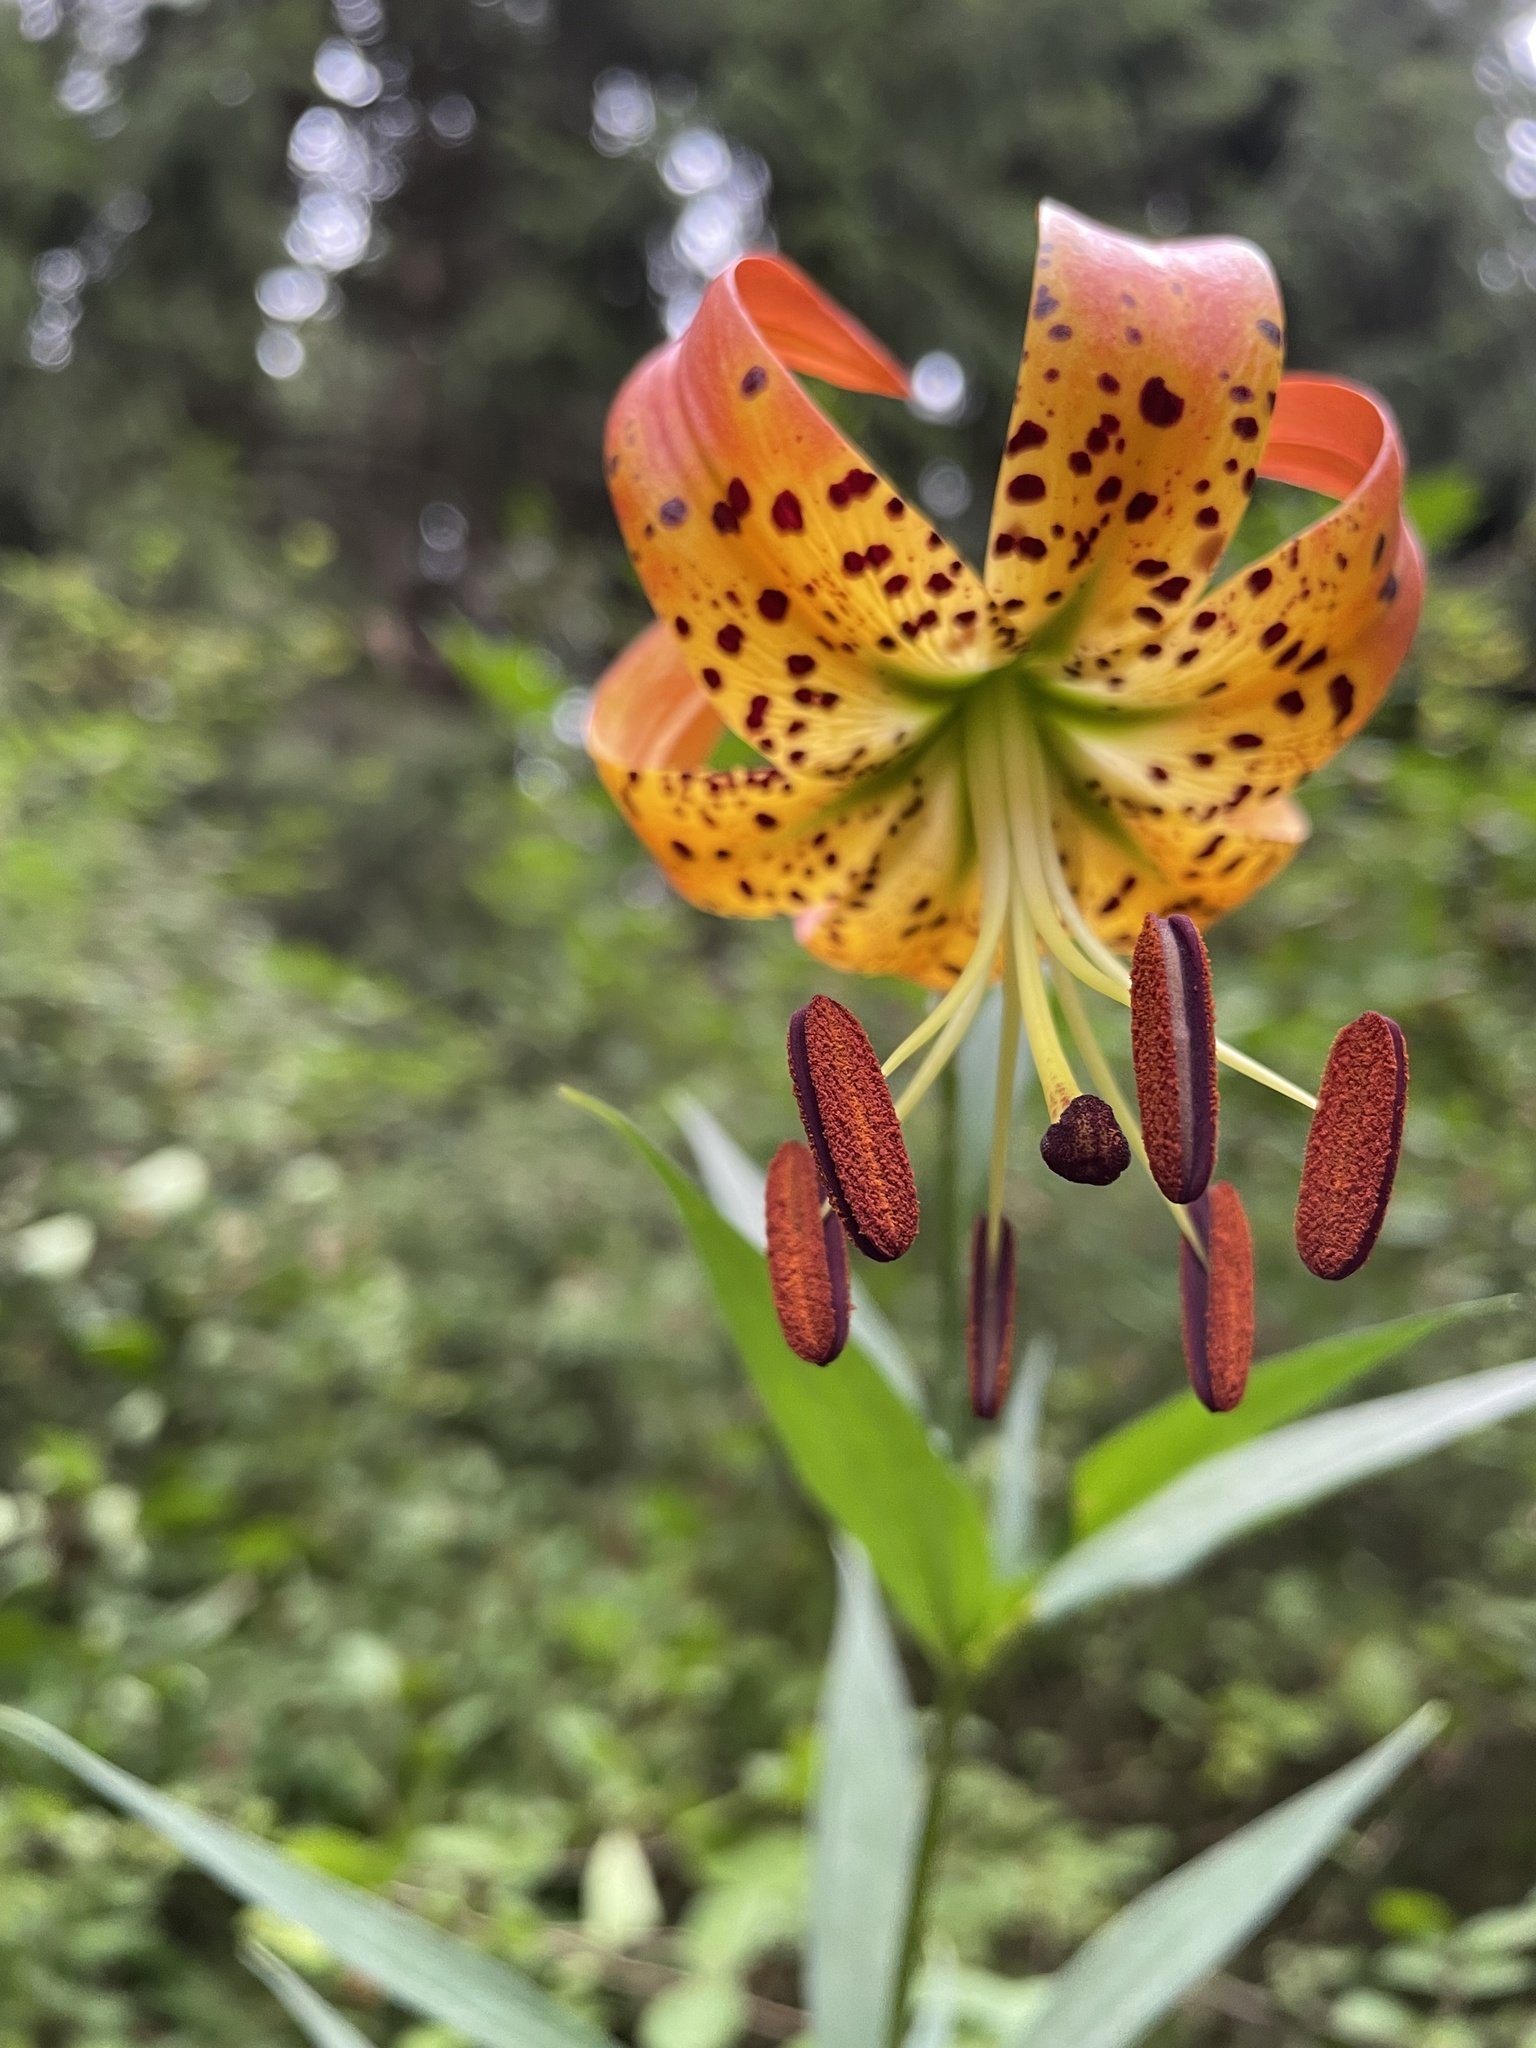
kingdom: Plantae
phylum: Tracheophyta
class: Liliopsida
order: Liliales
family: Liliaceae
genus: Lilium
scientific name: Lilium superbum
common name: American turk's-cap lily
